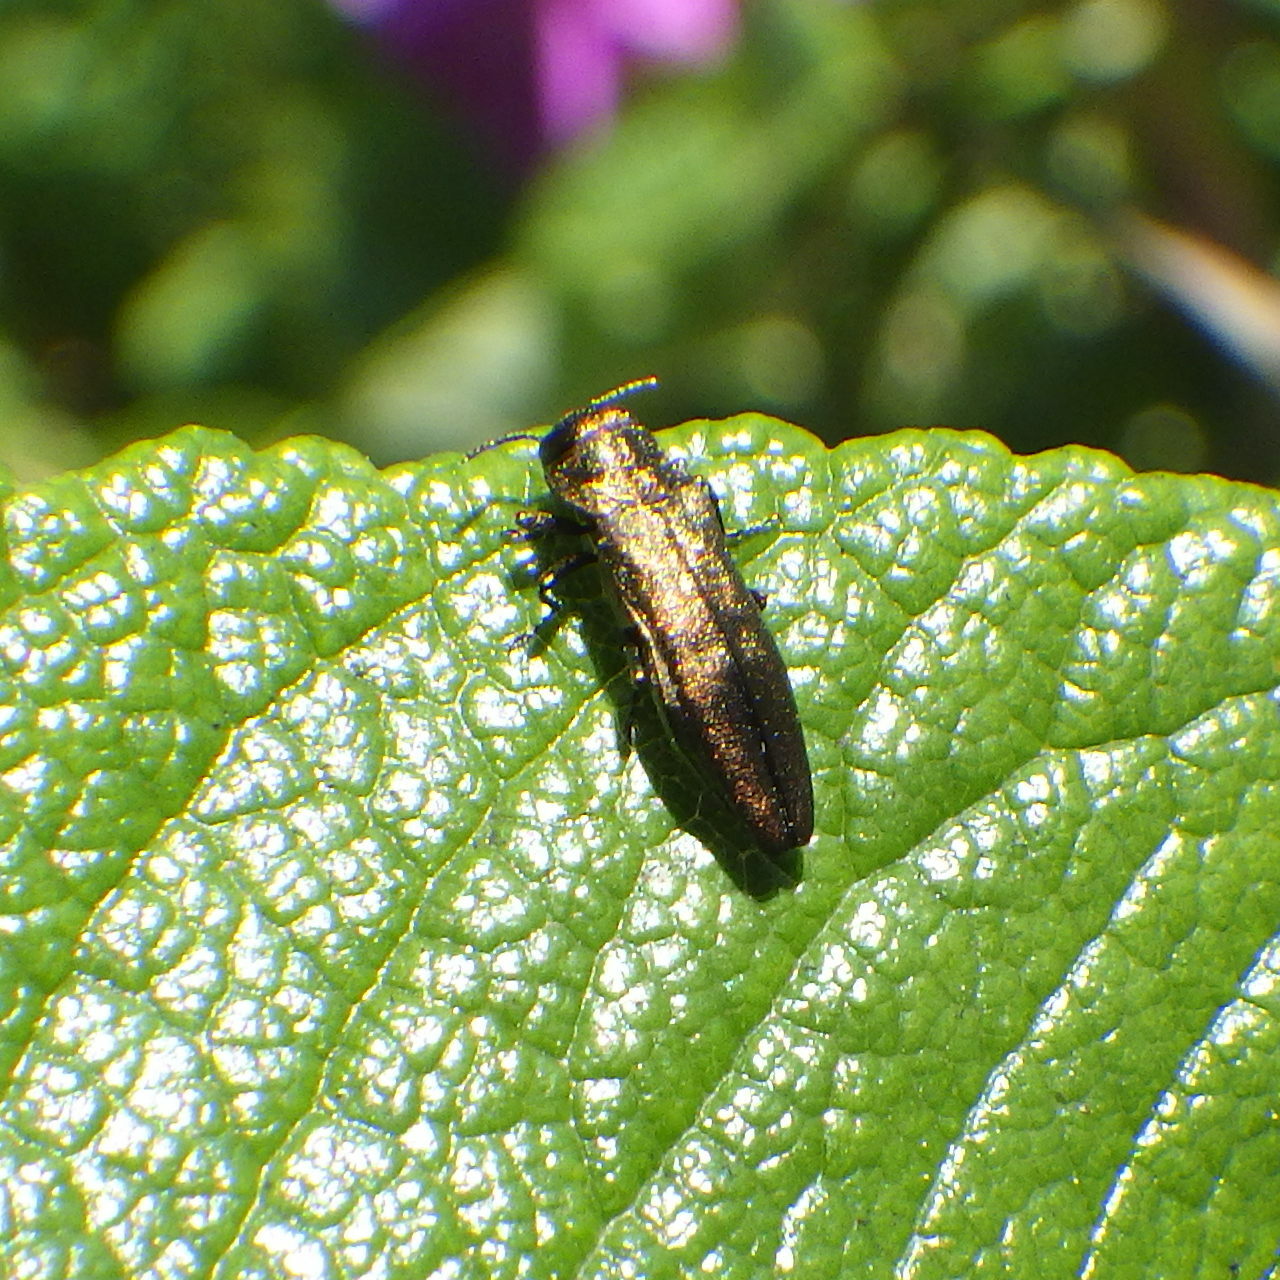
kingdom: Animalia
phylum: Arthropoda
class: Insecta
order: Coleoptera
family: Buprestidae
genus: Agrilus
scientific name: Agrilus cuprescens
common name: Rose stem girdler
